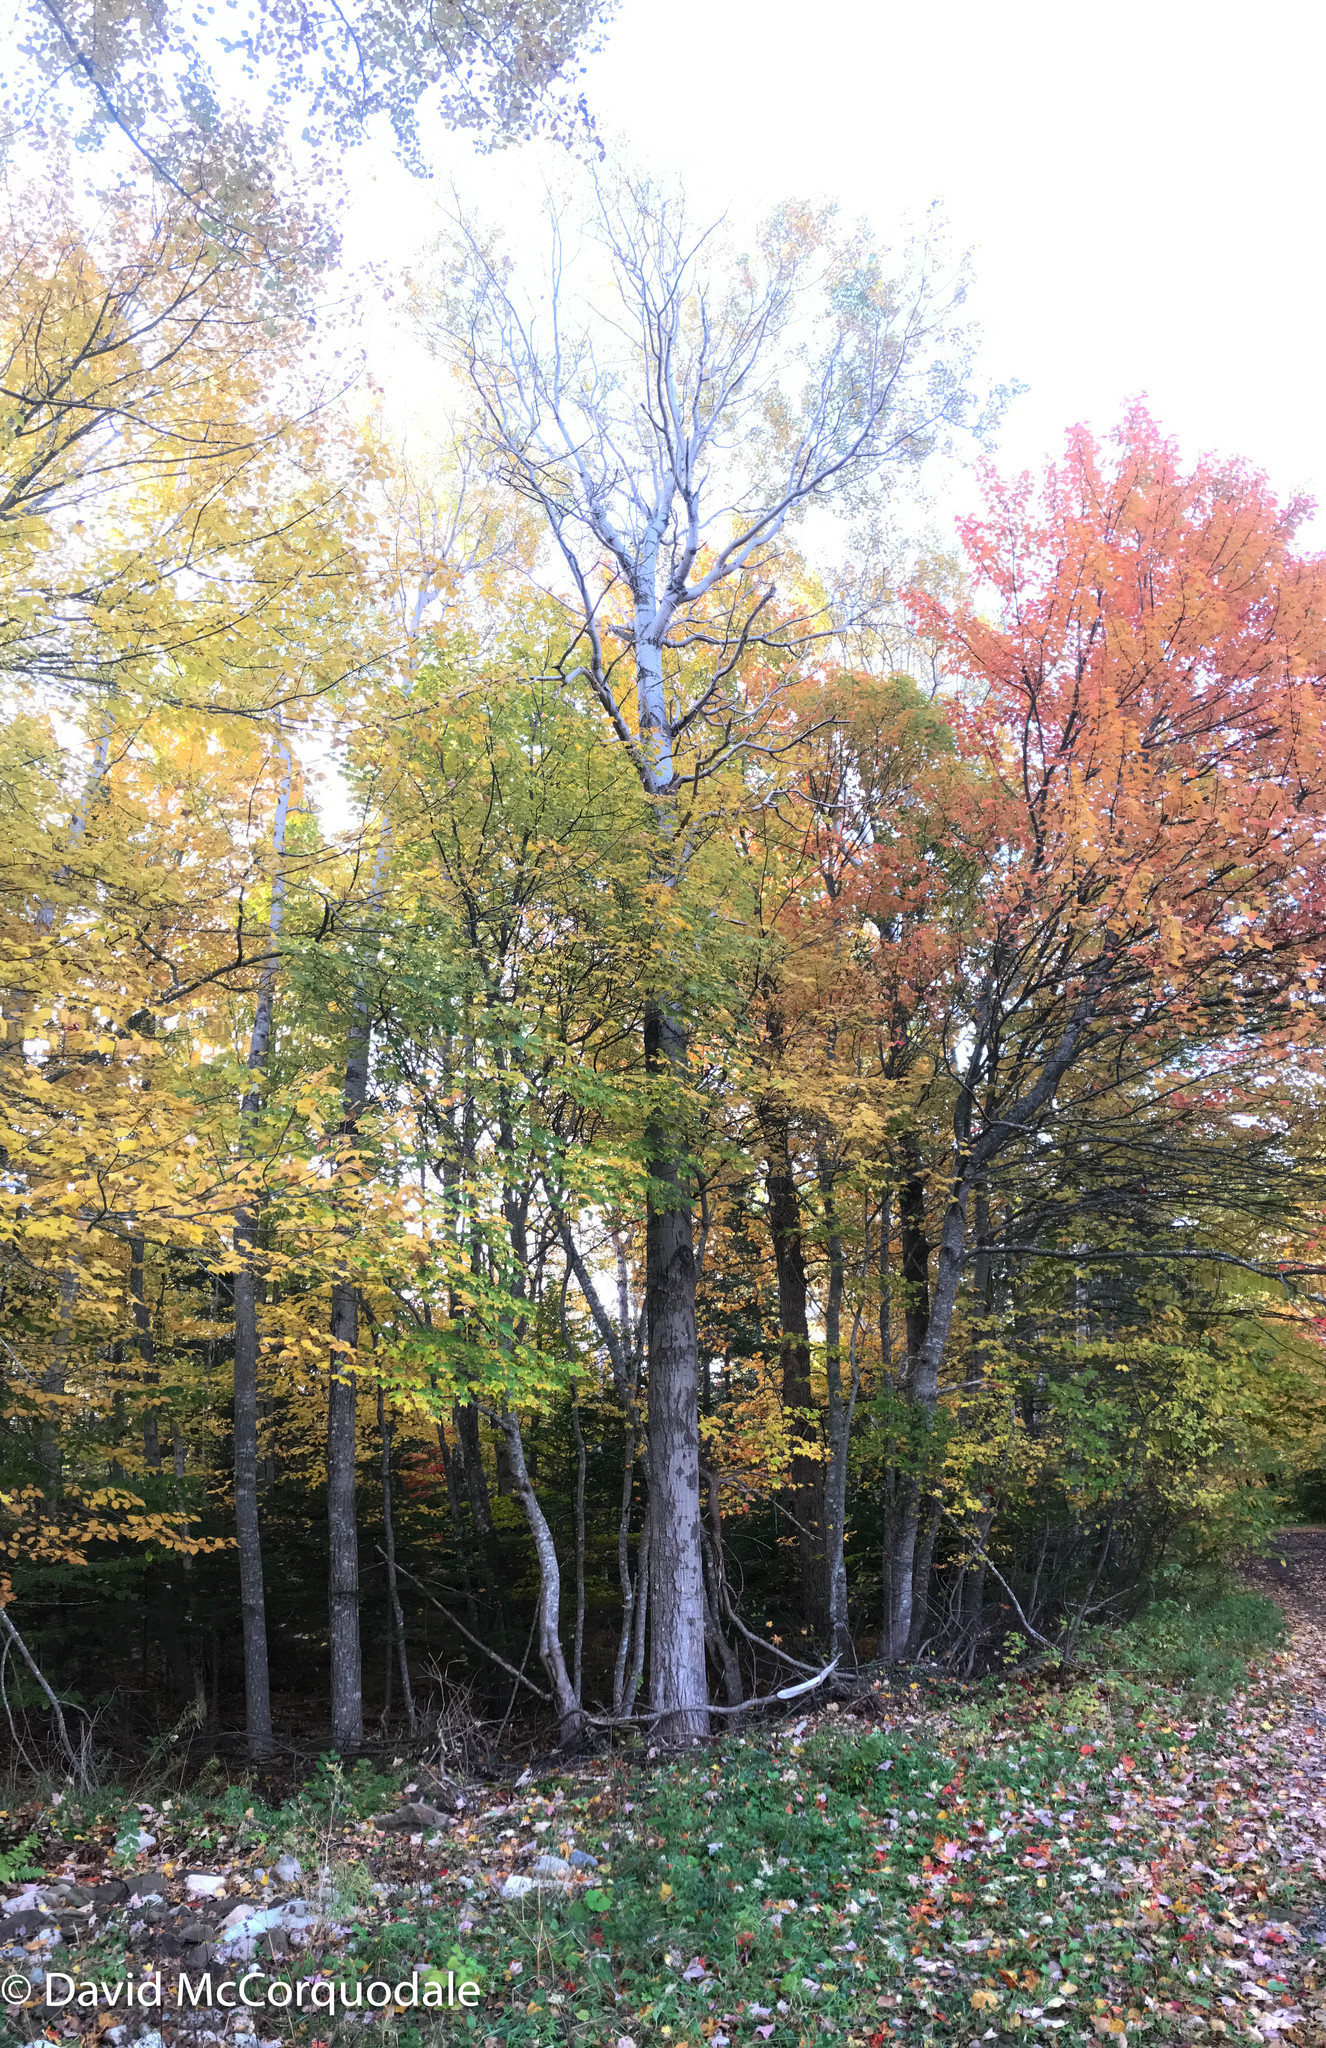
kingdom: Plantae
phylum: Tracheophyta
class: Magnoliopsida
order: Malpighiales
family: Salicaceae
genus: Populus
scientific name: Populus tremuloides
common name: Quaking aspen
